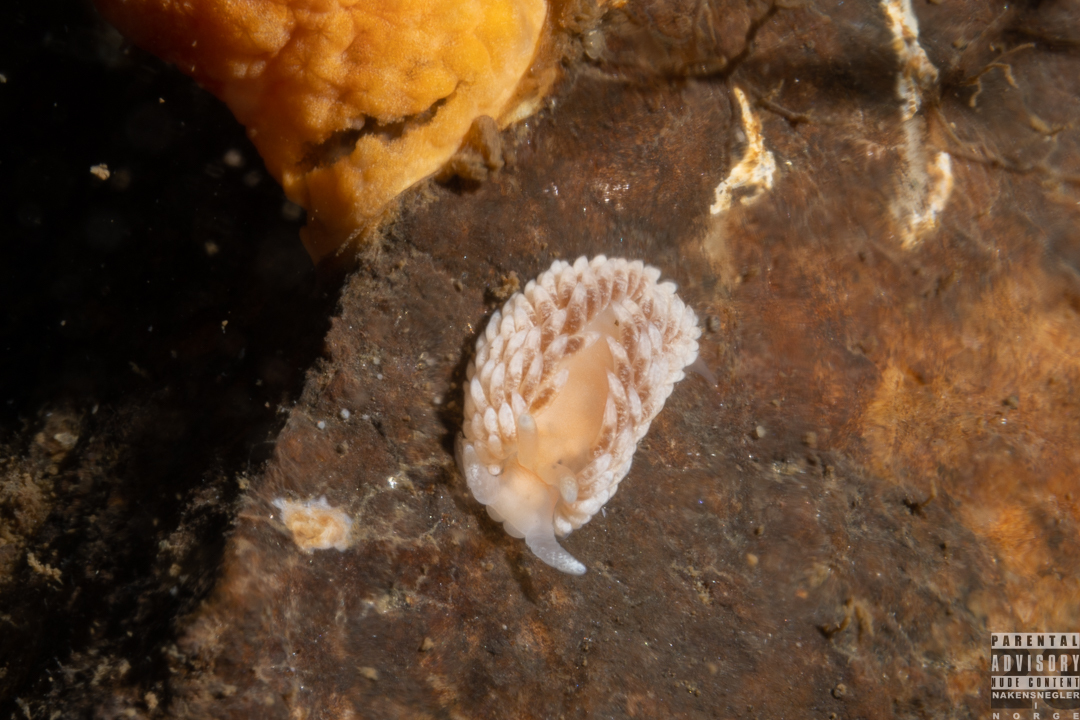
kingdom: Animalia
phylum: Mollusca
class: Gastropoda
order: Nudibranchia
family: Aeolidiidae
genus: Aeolidiella
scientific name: Aeolidiella glauca
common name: Orange-brown aeolid
